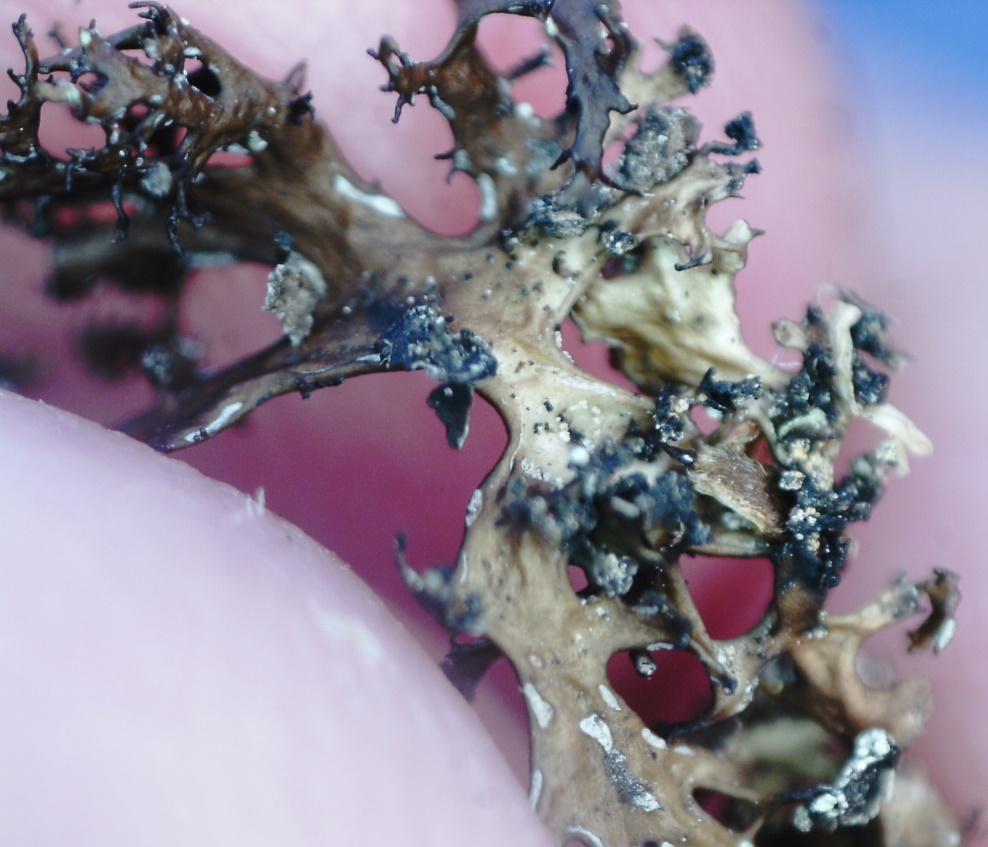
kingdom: Fungi
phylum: Ascomycota
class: Lecanoromycetes
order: Lecanorales
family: Parmeliaceae
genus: Cetraria
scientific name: Cetraria odontella
